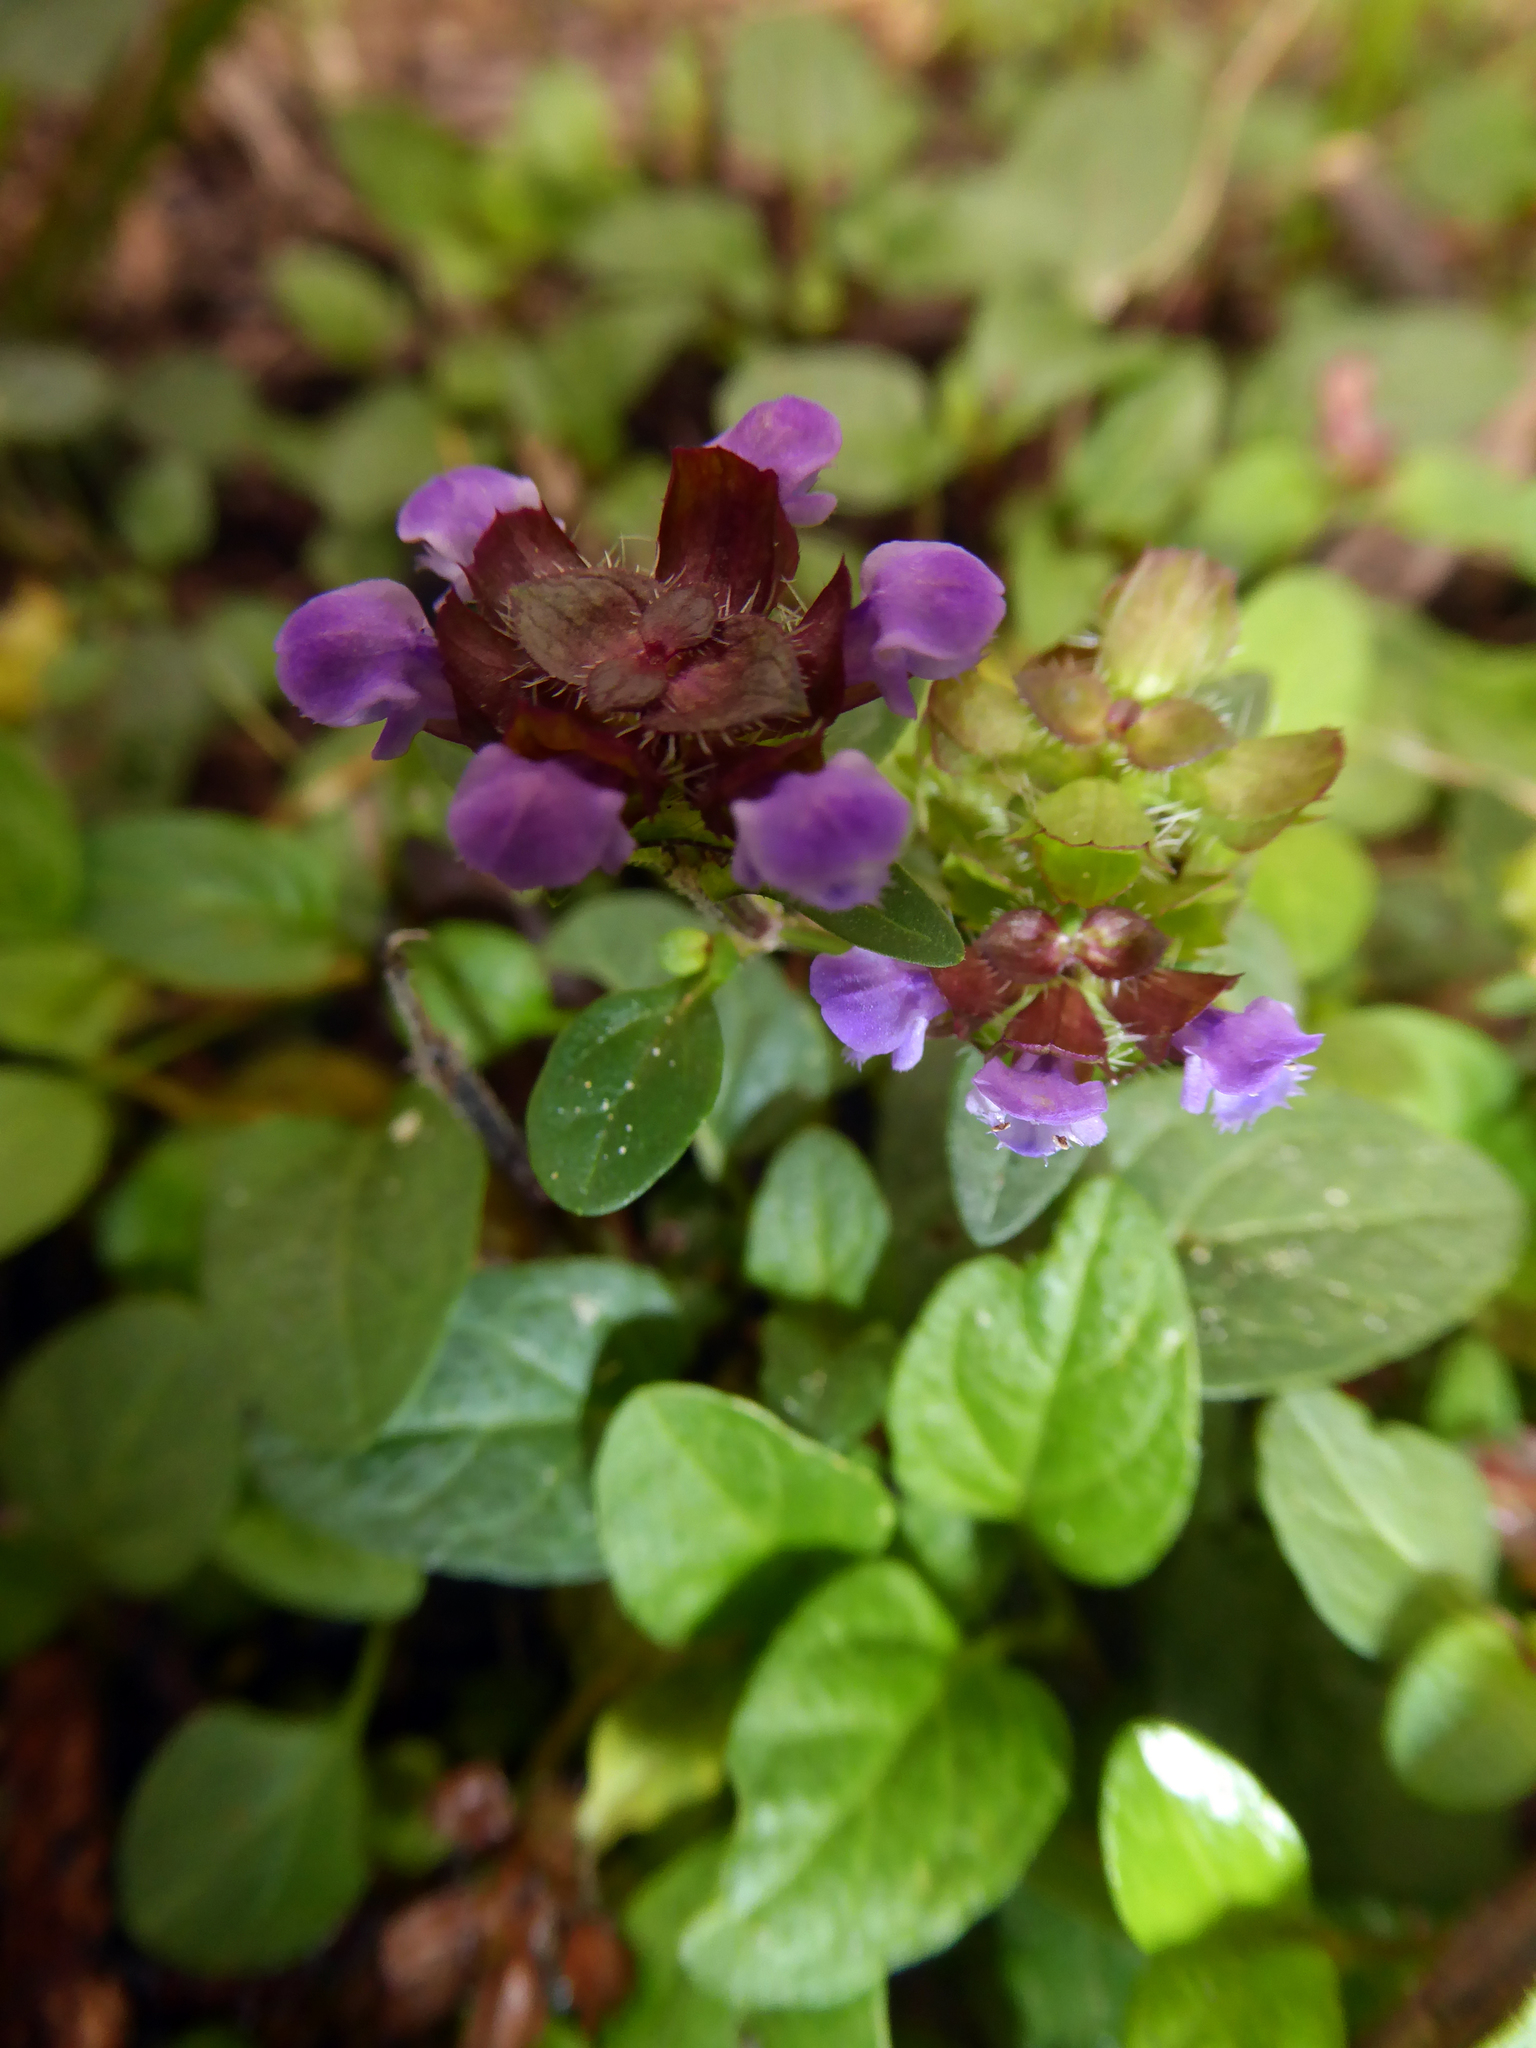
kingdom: Plantae
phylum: Tracheophyta
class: Magnoliopsida
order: Lamiales
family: Lamiaceae
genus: Prunella
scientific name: Prunella vulgaris
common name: Heal-all
